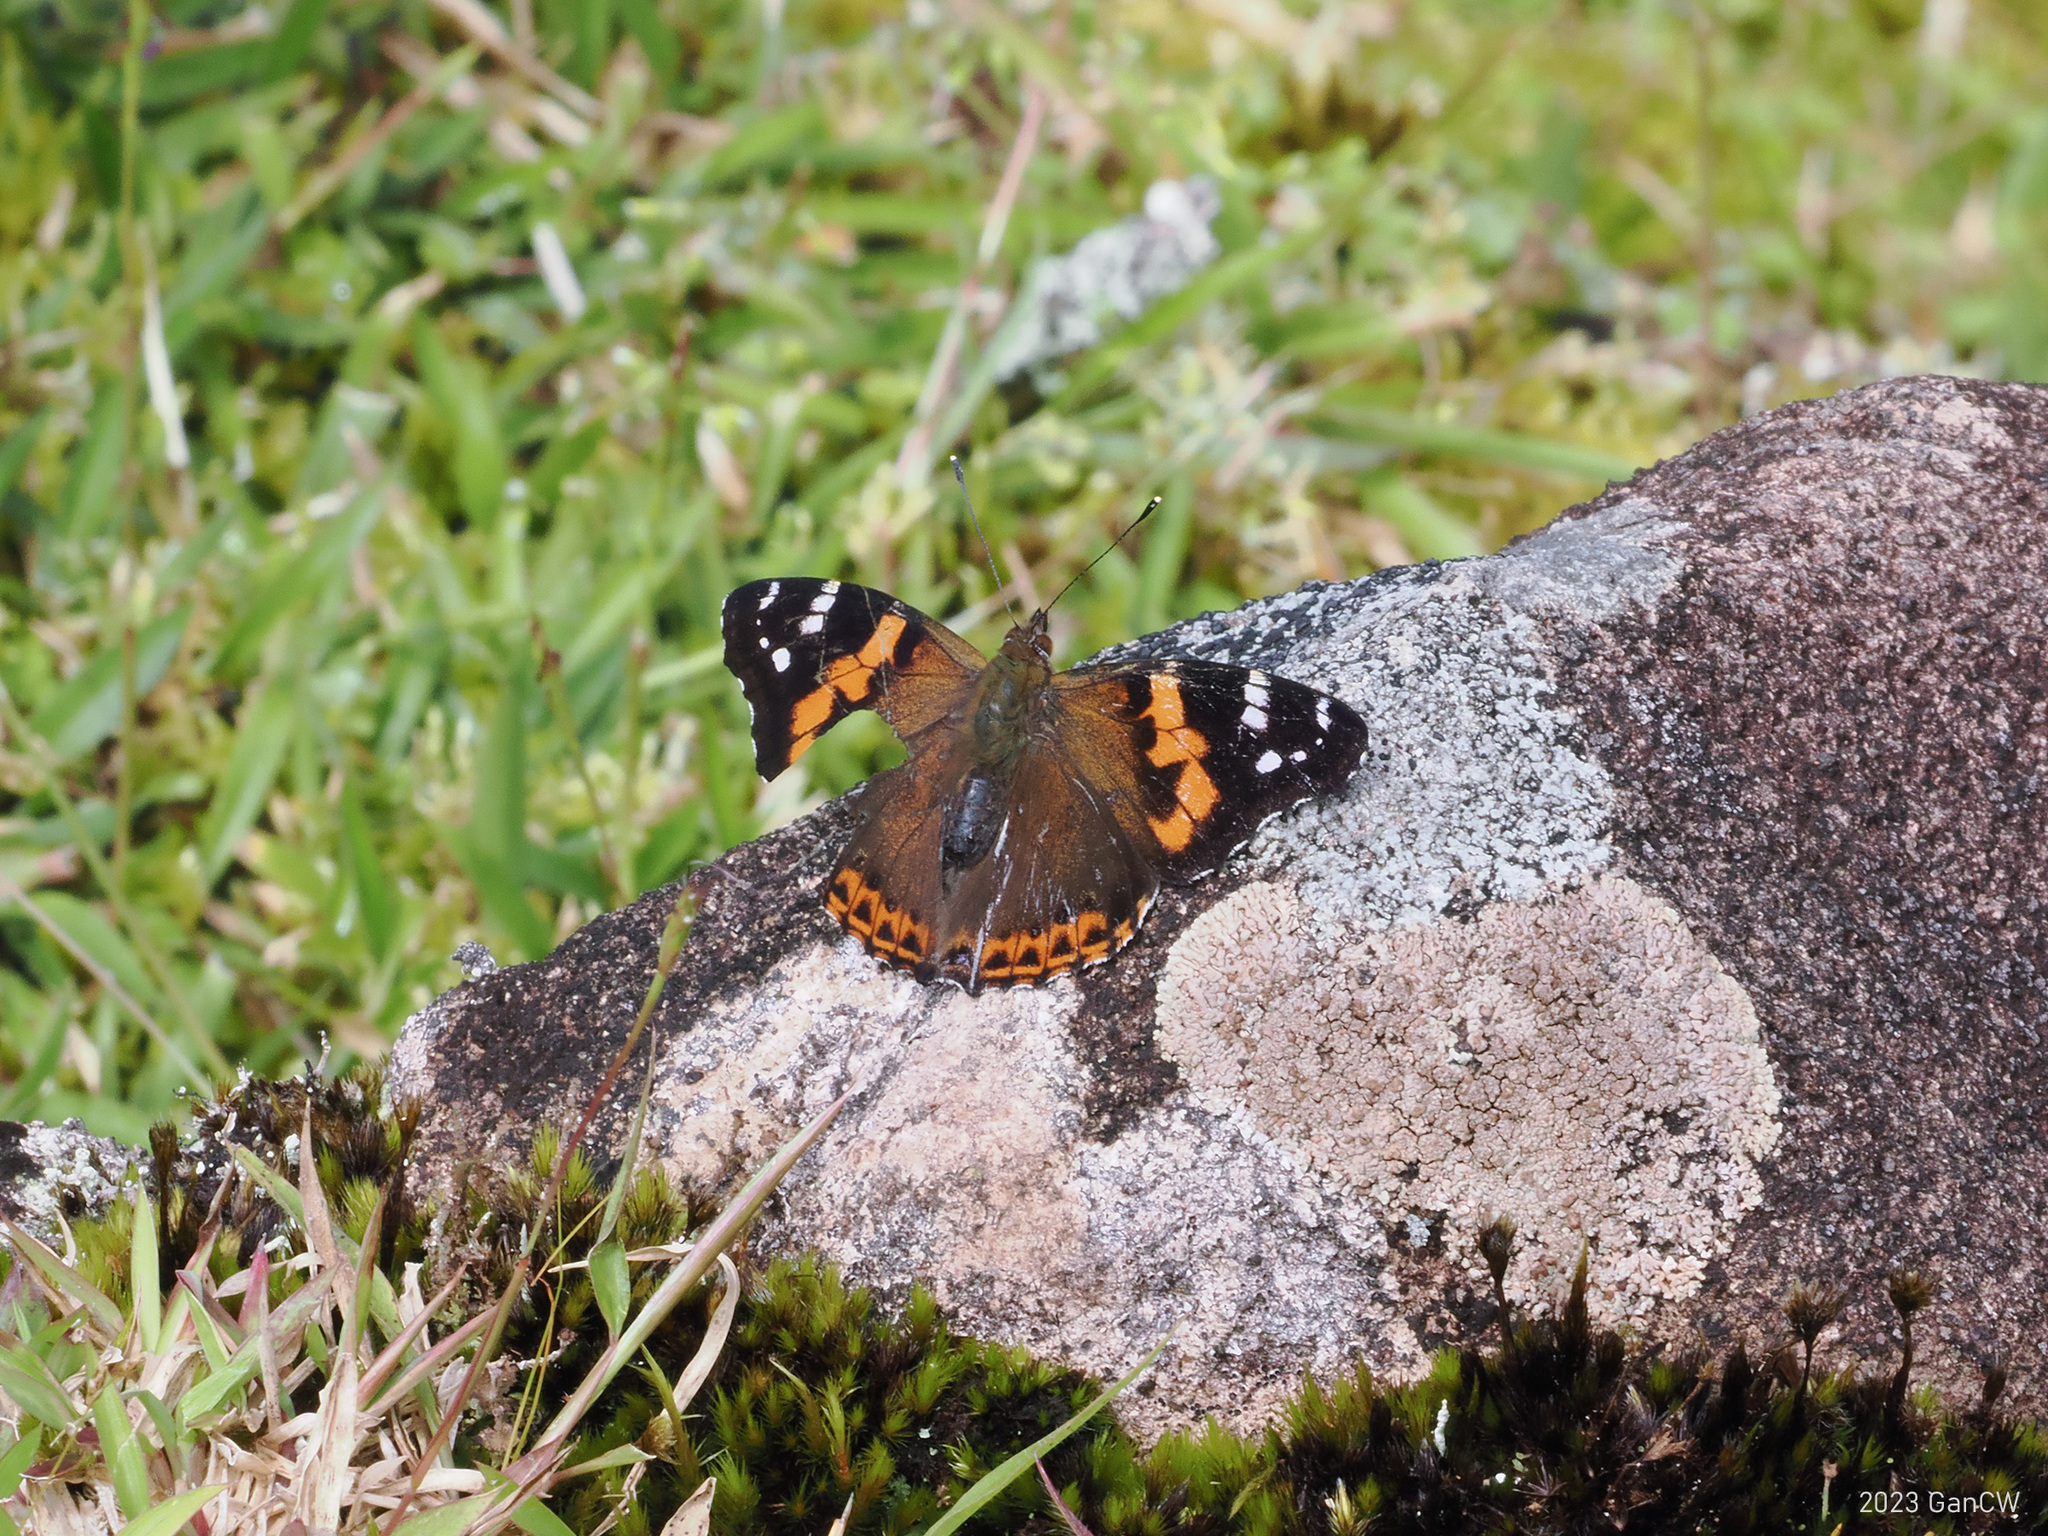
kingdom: Animalia
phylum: Arthropoda
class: Insecta
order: Lepidoptera
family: Nymphalidae
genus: Vanessa
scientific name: Vanessa buana
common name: Lompobatang lady
